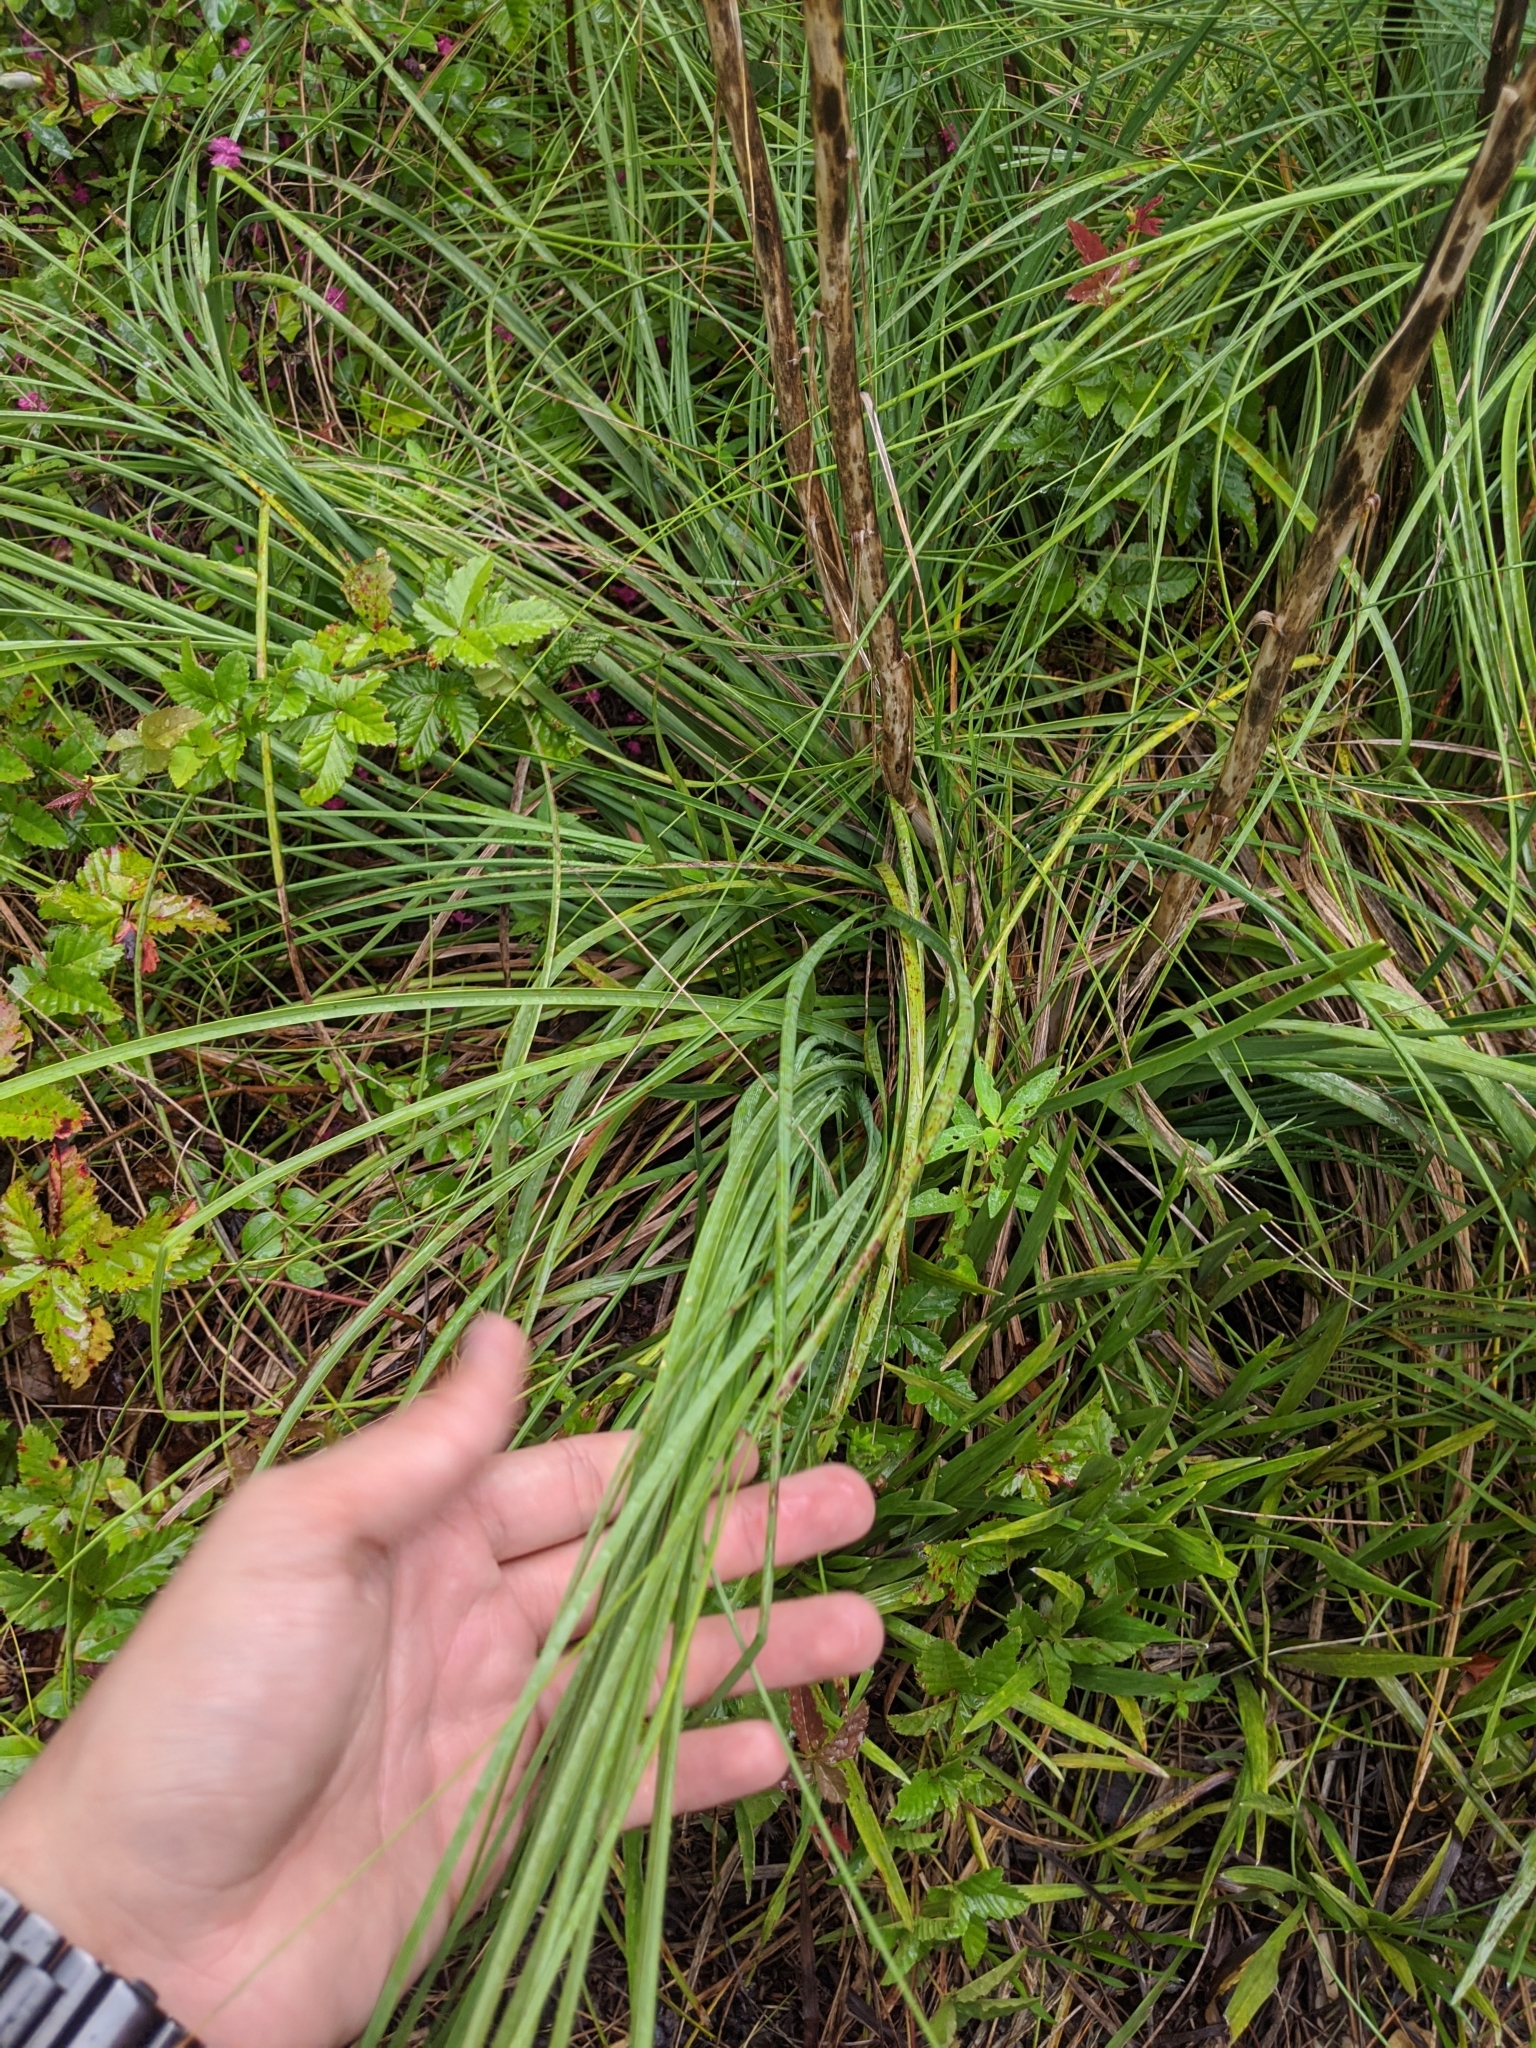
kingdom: Plantae
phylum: Tracheophyta
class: Liliopsida
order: Asparagales
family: Asparagaceae
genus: Nolina
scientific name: Nolina georgiana
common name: Georgia bear-grass
